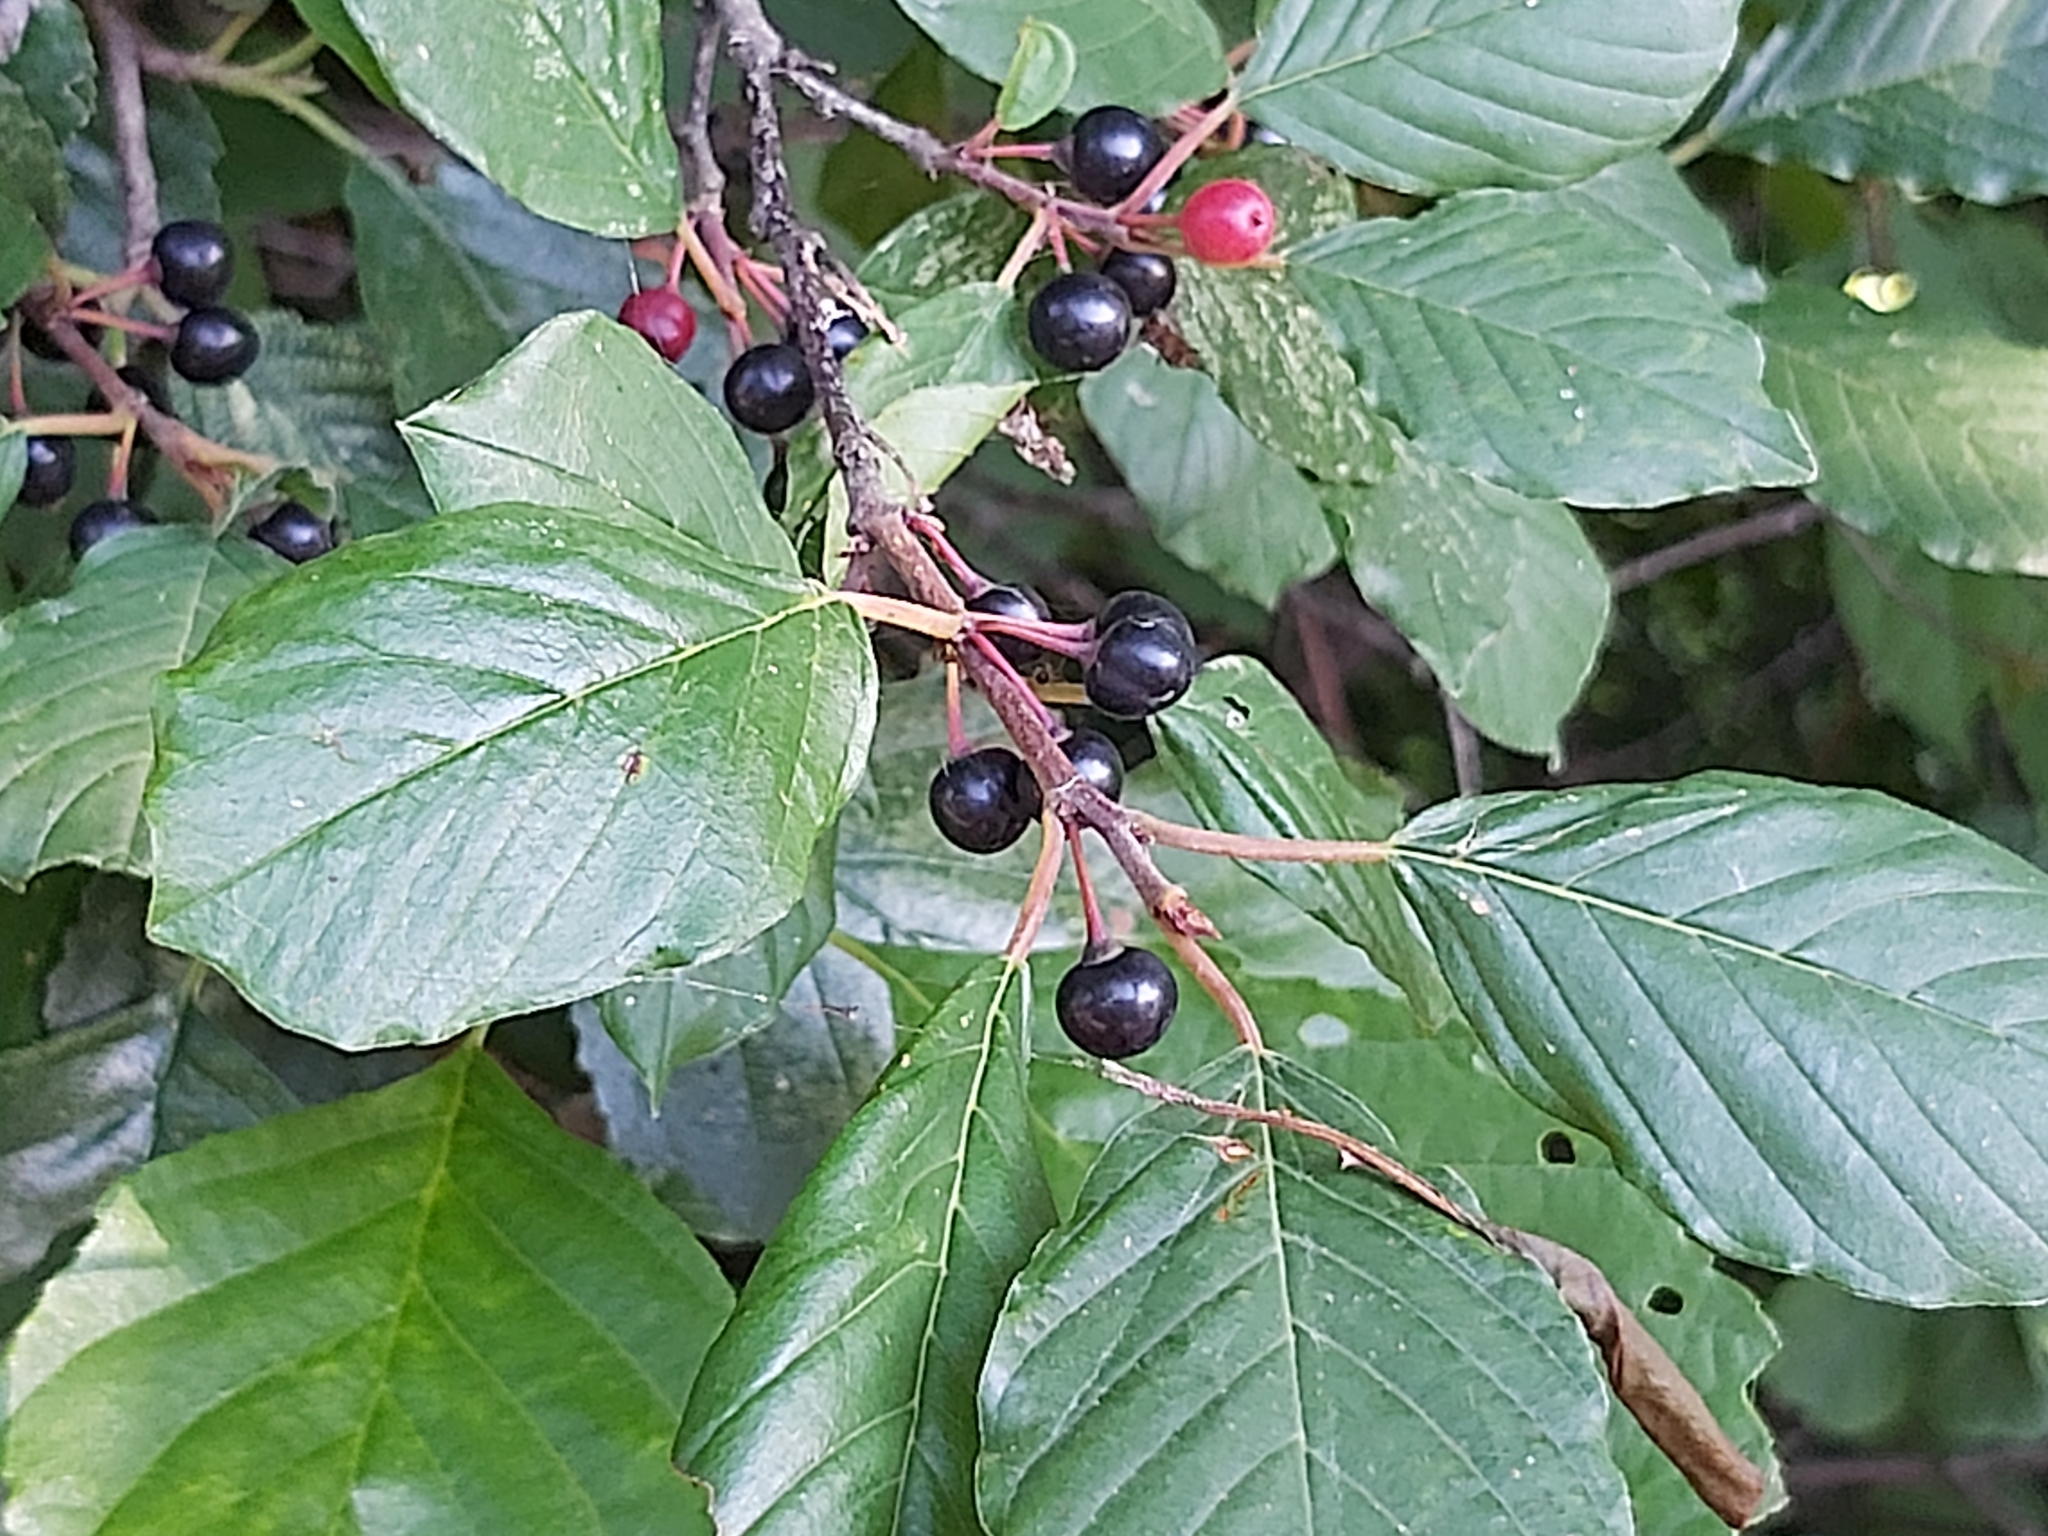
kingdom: Plantae
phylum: Tracheophyta
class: Magnoliopsida
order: Rosales
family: Rhamnaceae
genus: Frangula
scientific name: Frangula alnus
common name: Alder buckthorn
